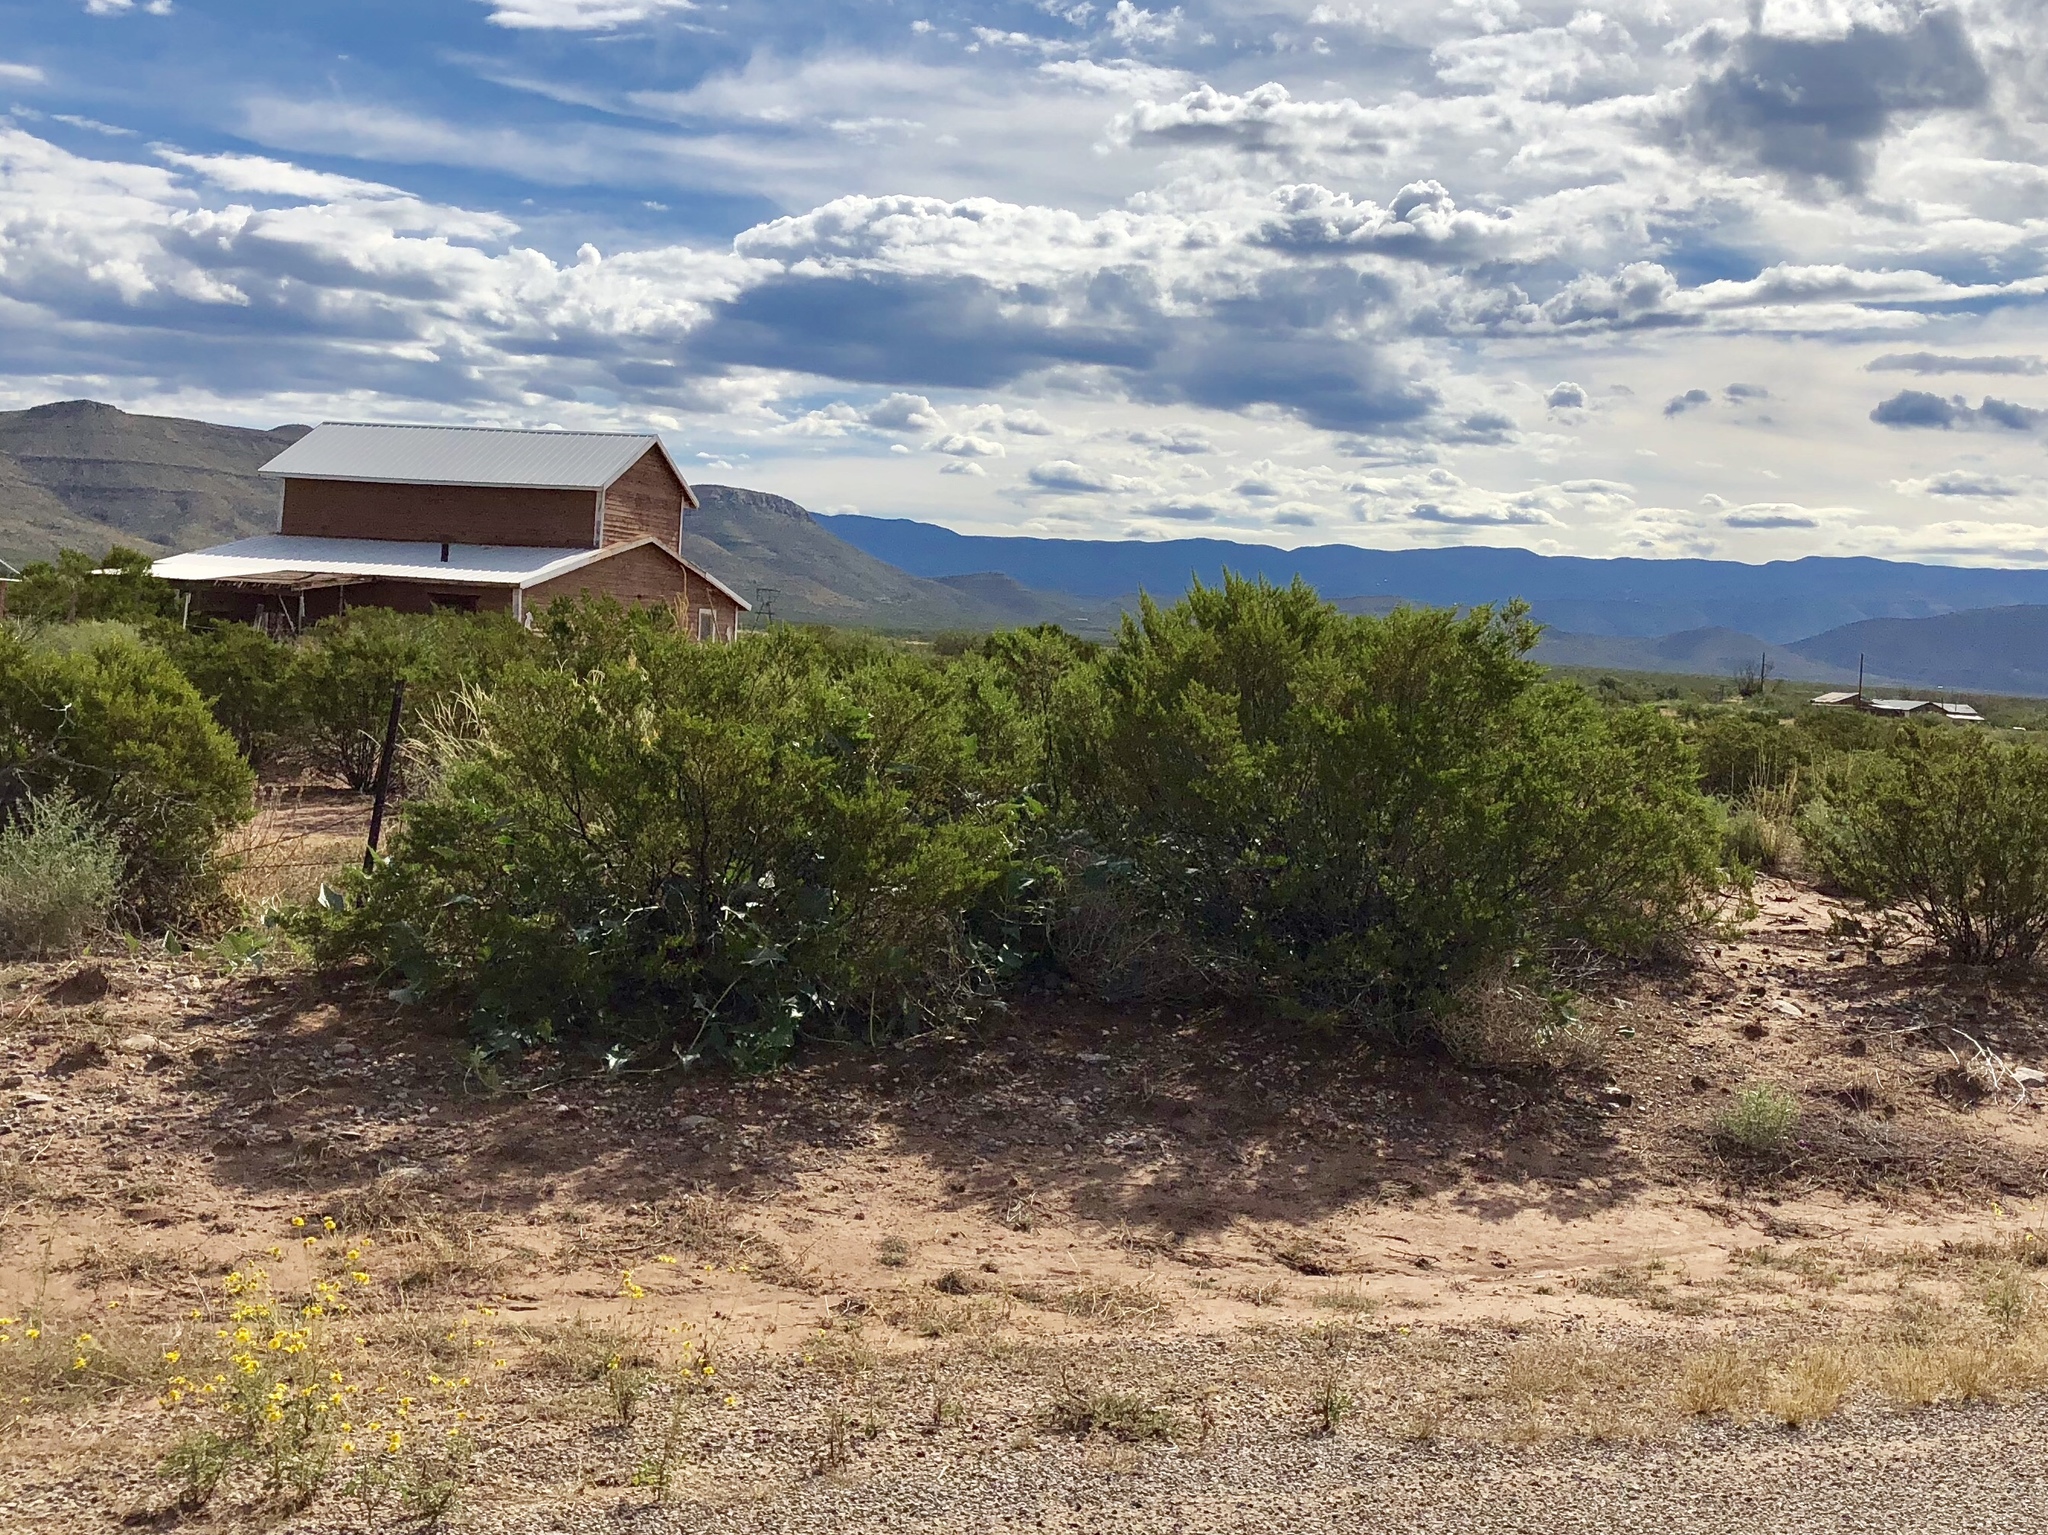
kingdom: Plantae
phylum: Tracheophyta
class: Magnoliopsida
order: Zygophyllales
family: Zygophyllaceae
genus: Larrea
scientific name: Larrea tridentata
